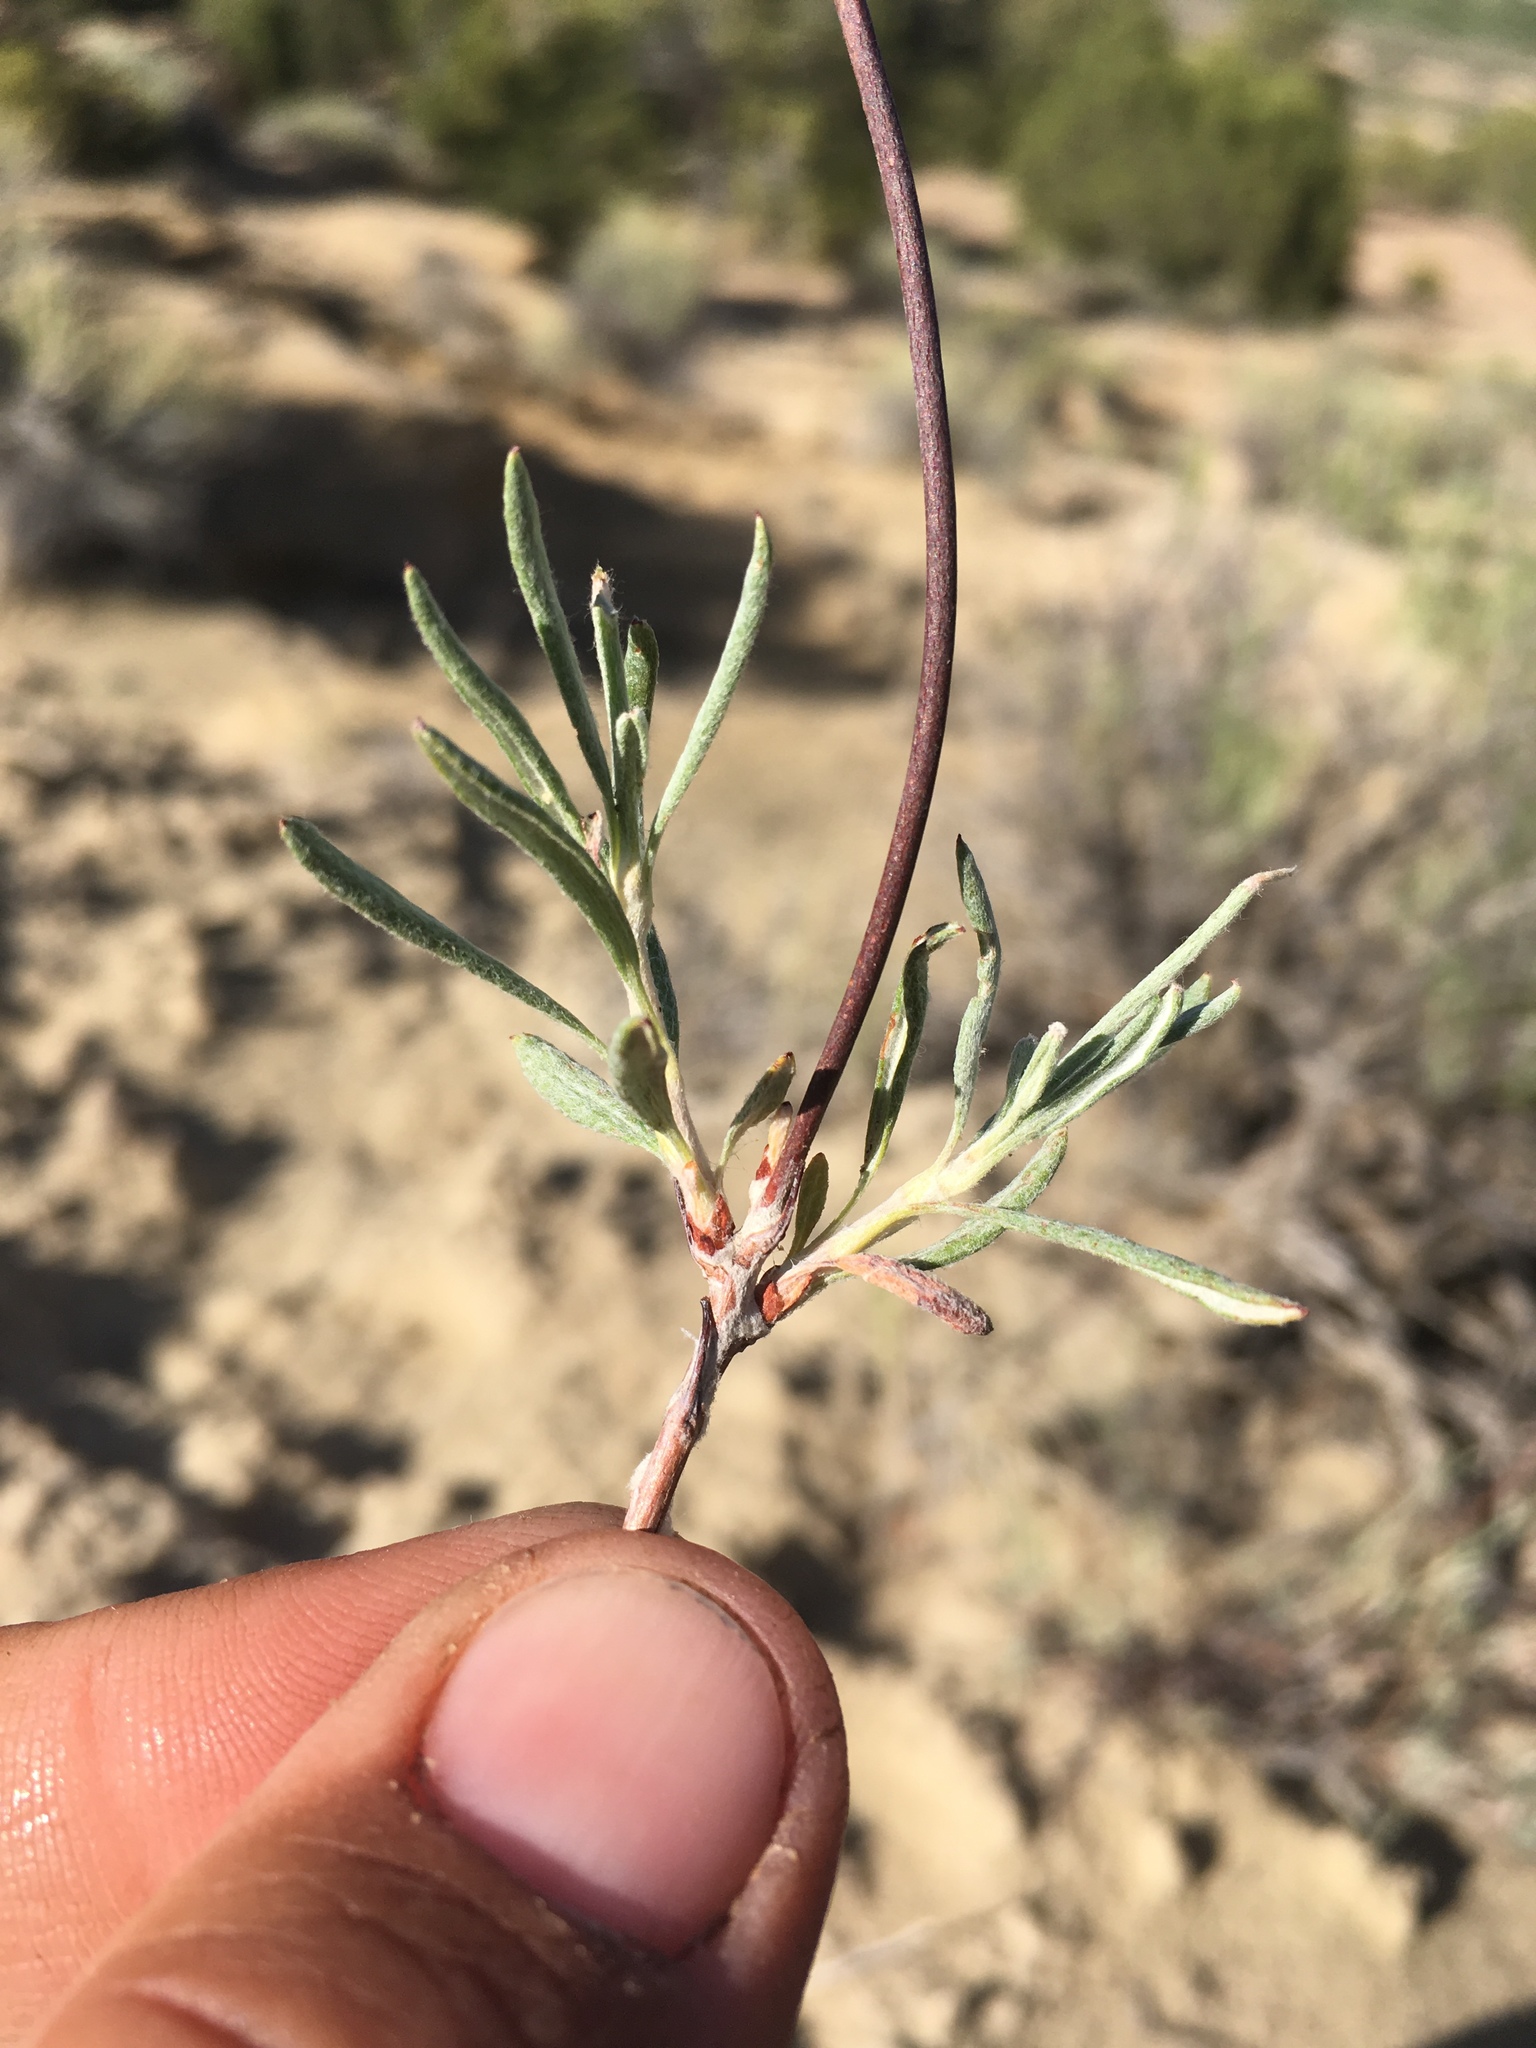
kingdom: Plantae
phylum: Tracheophyta
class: Magnoliopsida
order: Caryophyllales
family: Polygonaceae
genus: Eriogonum
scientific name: Eriogonum lonchophyllum
